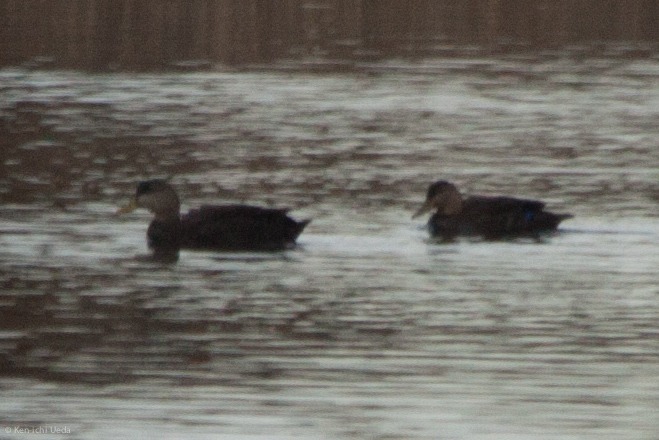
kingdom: Animalia
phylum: Chordata
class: Aves
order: Anseriformes
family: Anatidae
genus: Anas
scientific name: Anas rubripes
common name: American black duck
